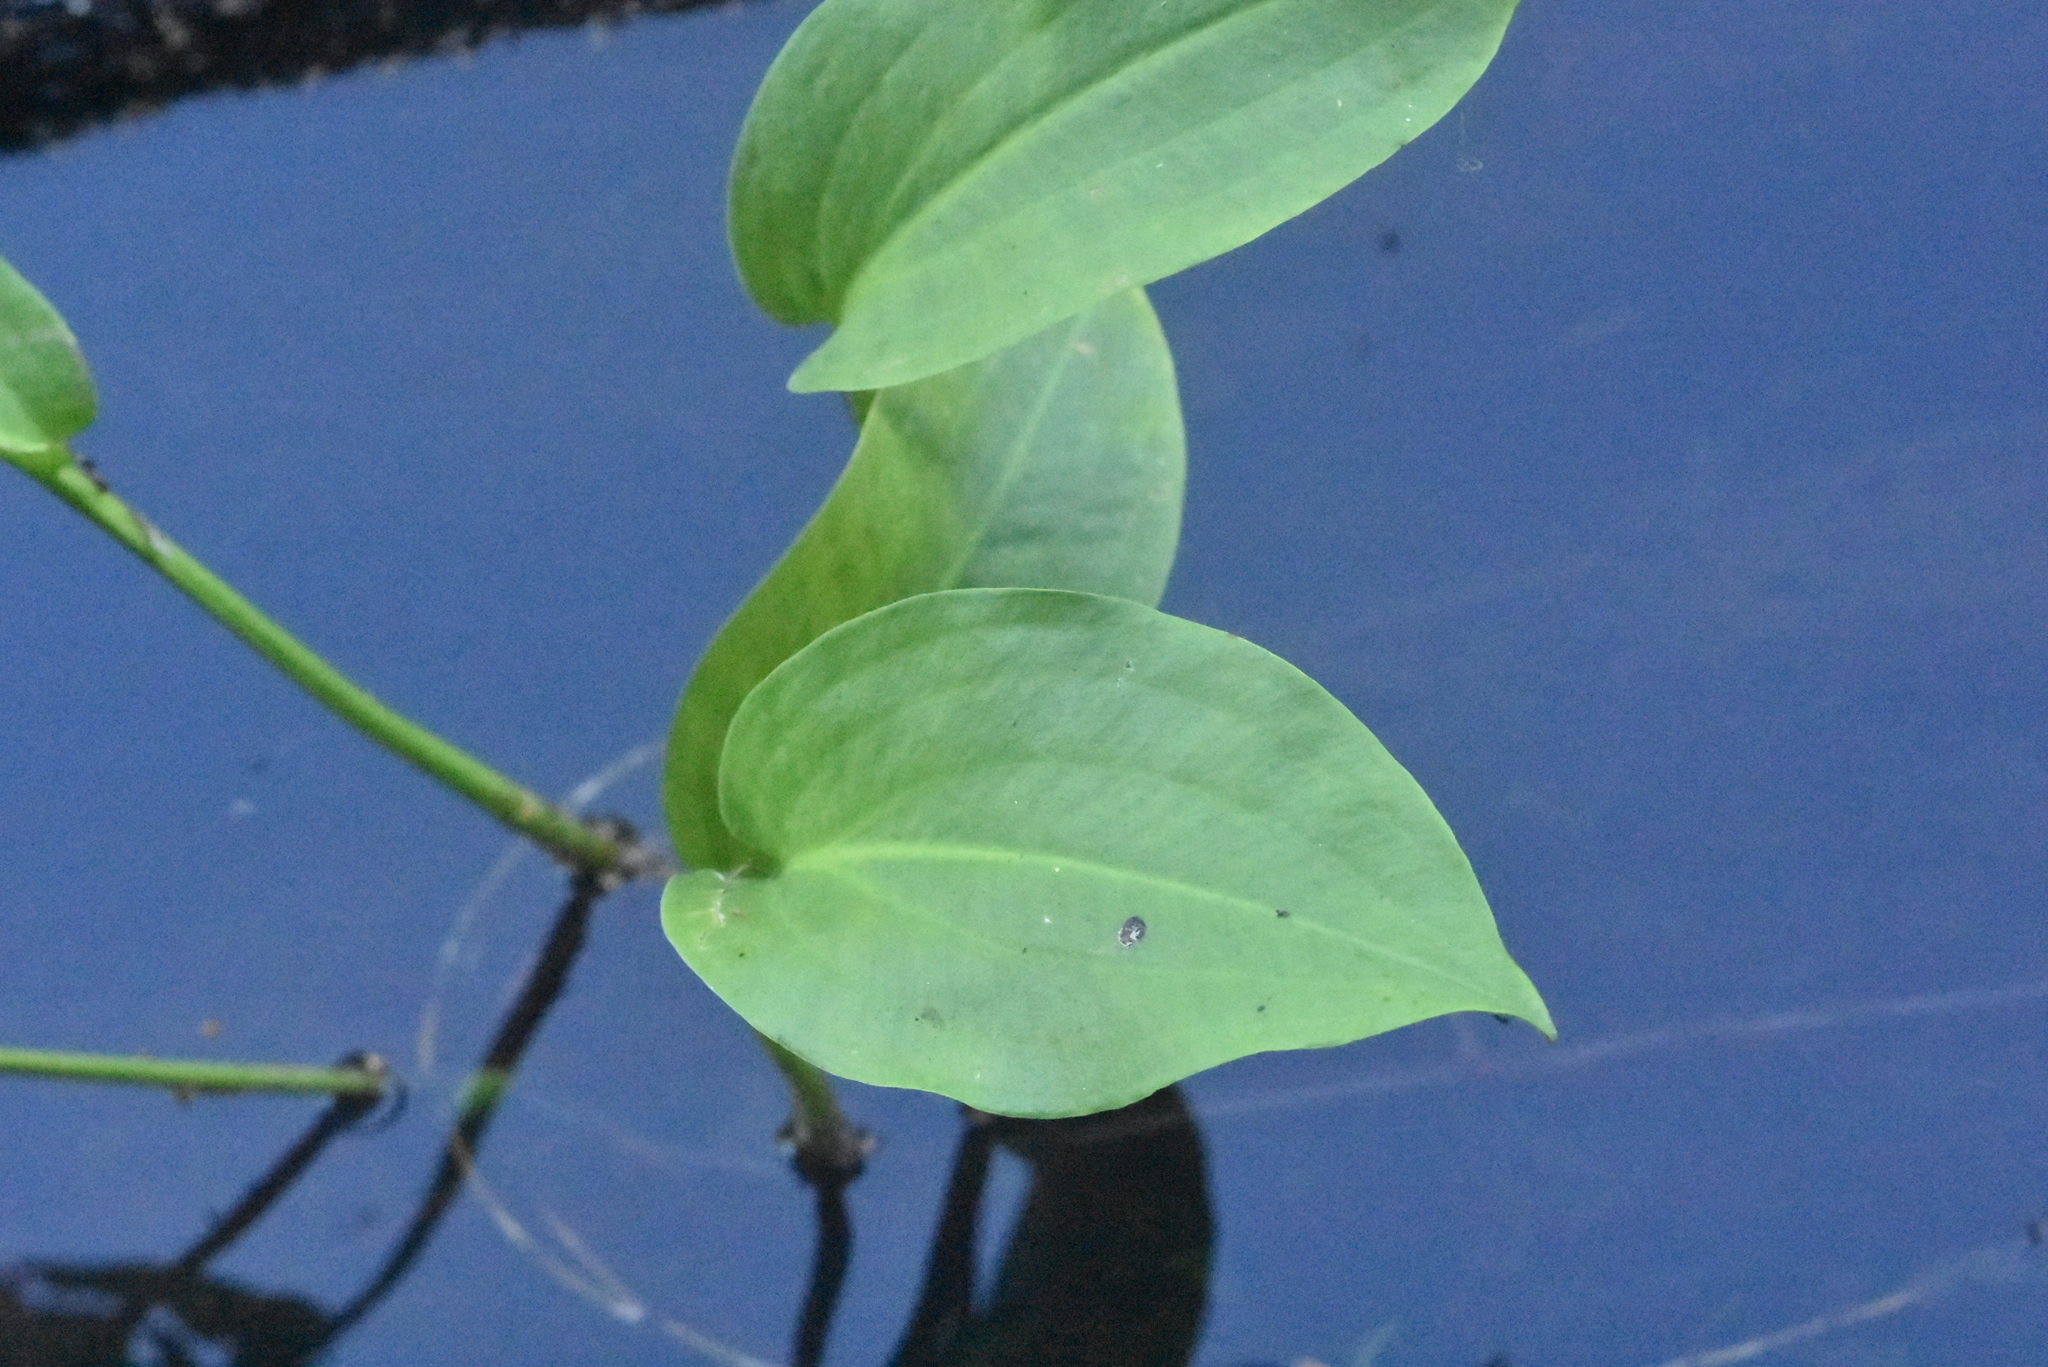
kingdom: Plantae
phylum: Tracheophyta
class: Liliopsida
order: Alismatales
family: Alismataceae
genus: Alisma
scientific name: Alisma plantago-aquatica
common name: Water-plantain
